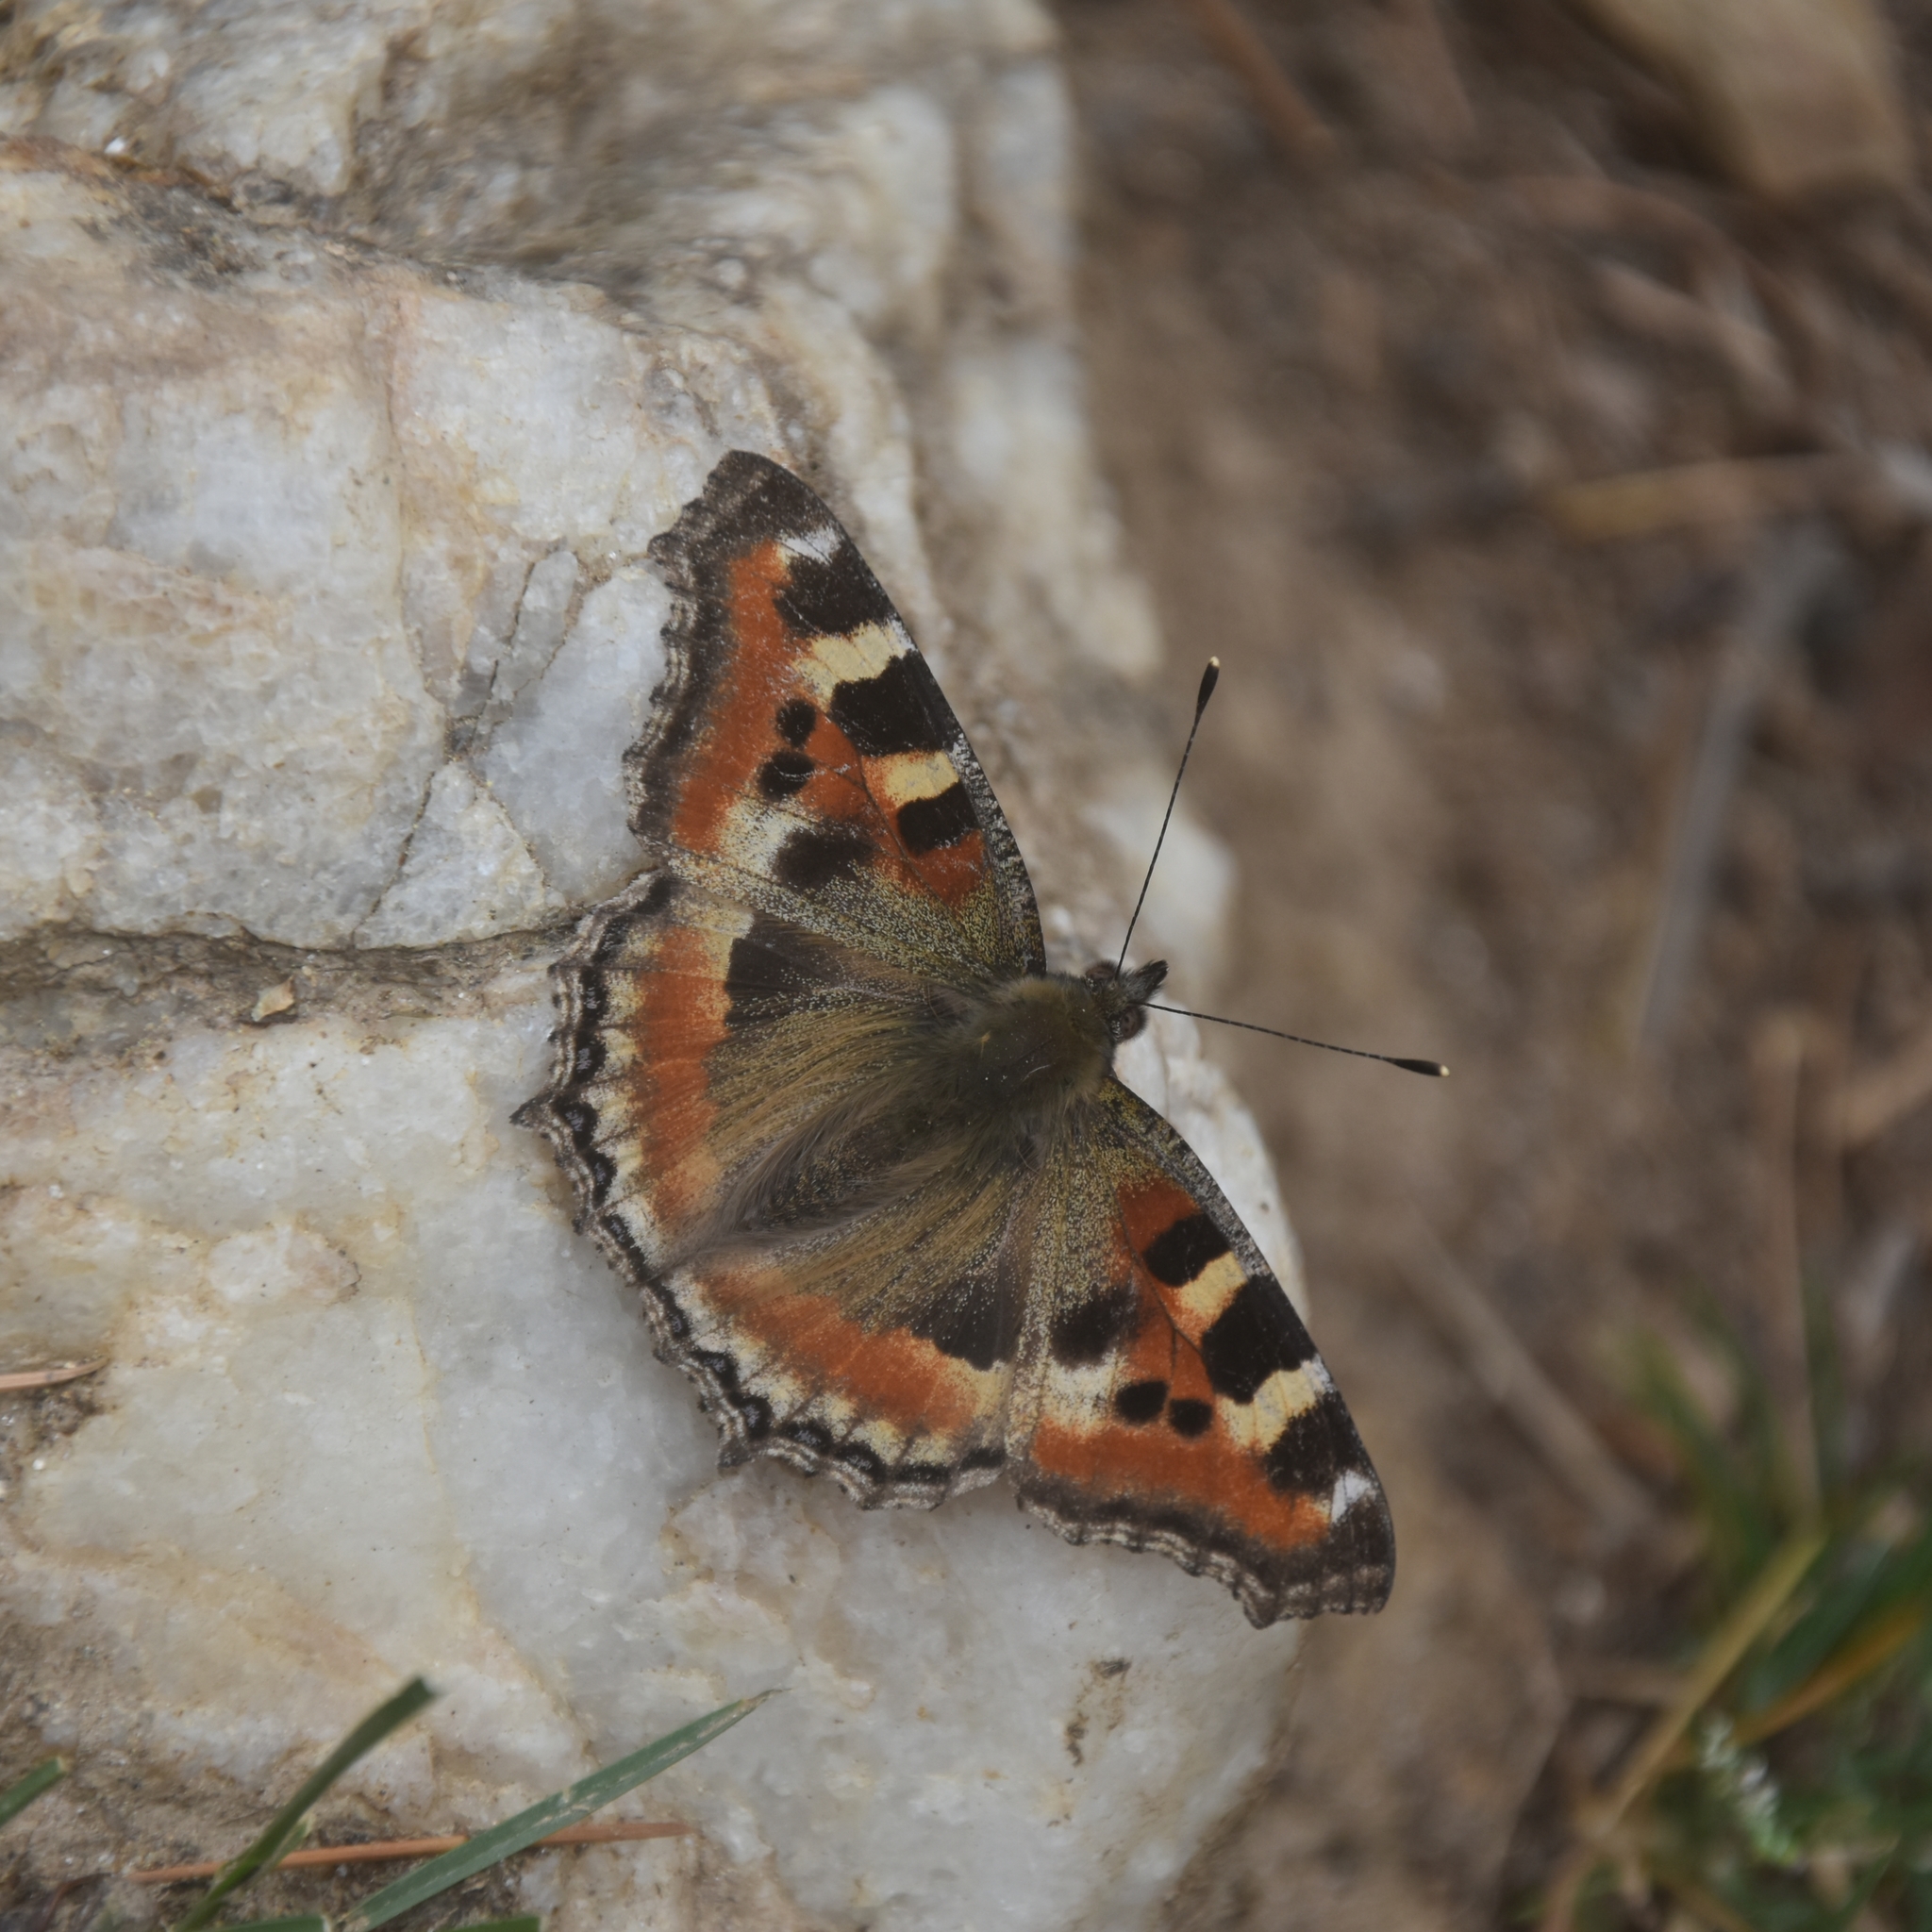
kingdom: Animalia
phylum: Arthropoda
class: Insecta
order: Lepidoptera
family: Nymphalidae
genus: Aglais
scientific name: Aglais caschmirensis
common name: Indian tortoiseshell
